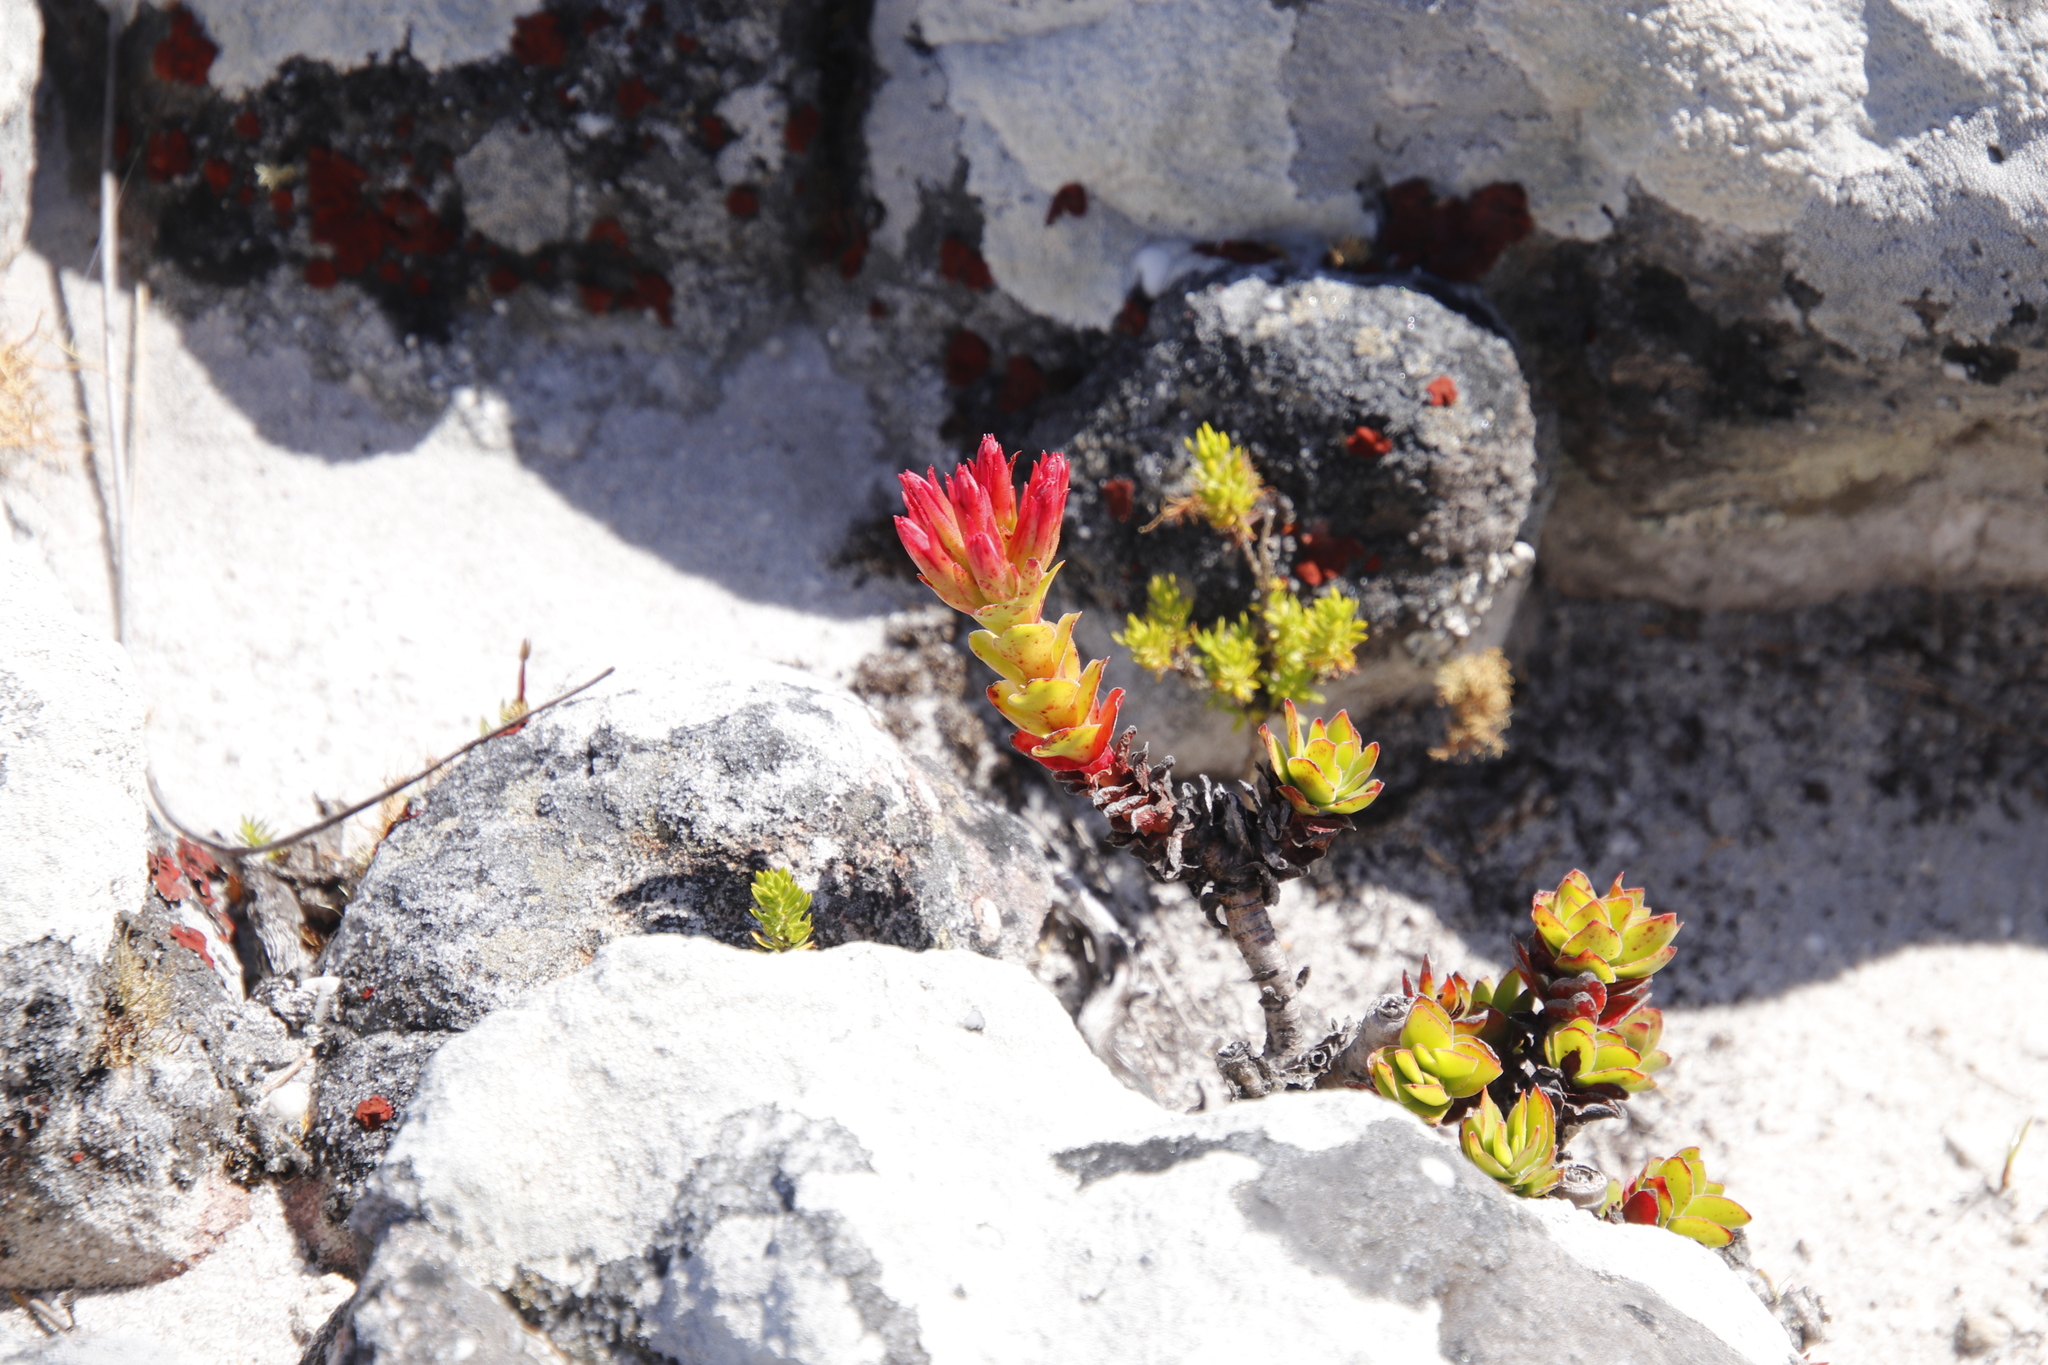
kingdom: Plantae
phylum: Tracheophyta
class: Magnoliopsida
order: Saxifragales
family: Crassulaceae
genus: Crassula
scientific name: Crassula coccinea
